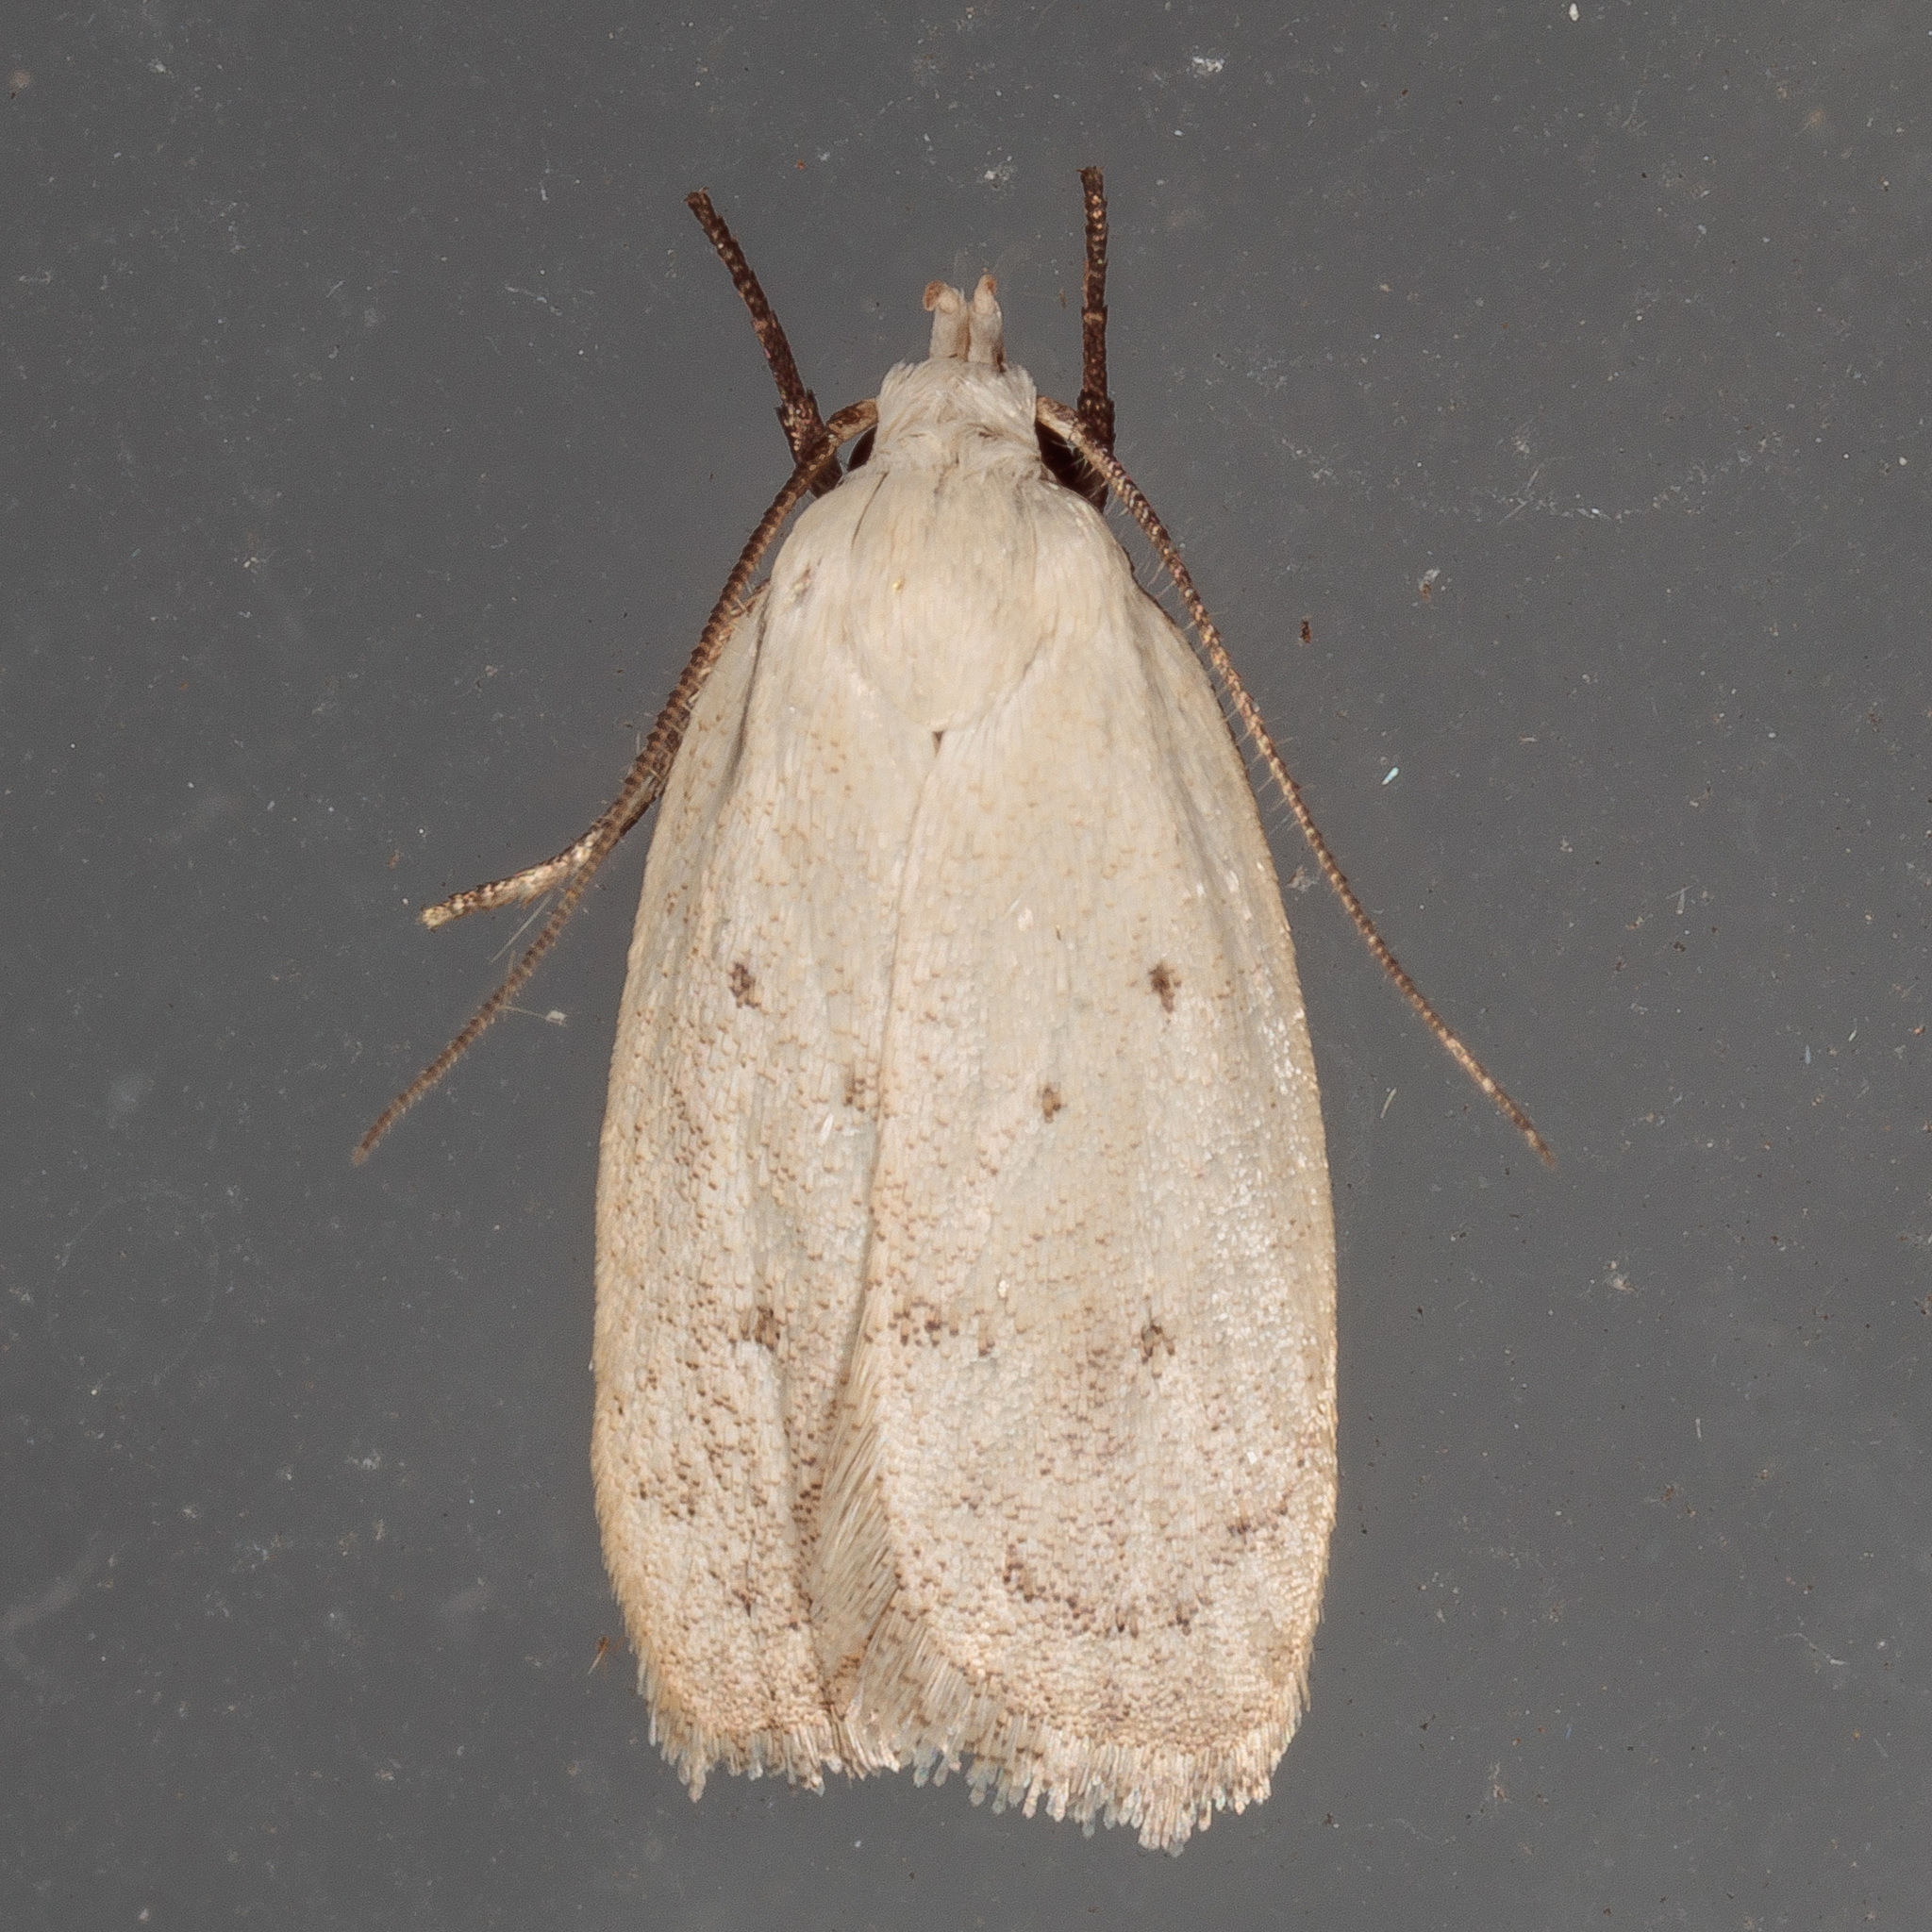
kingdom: Animalia
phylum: Arthropoda
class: Insecta
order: Lepidoptera
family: Oecophoridae
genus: Inga
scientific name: Inga cretacea
